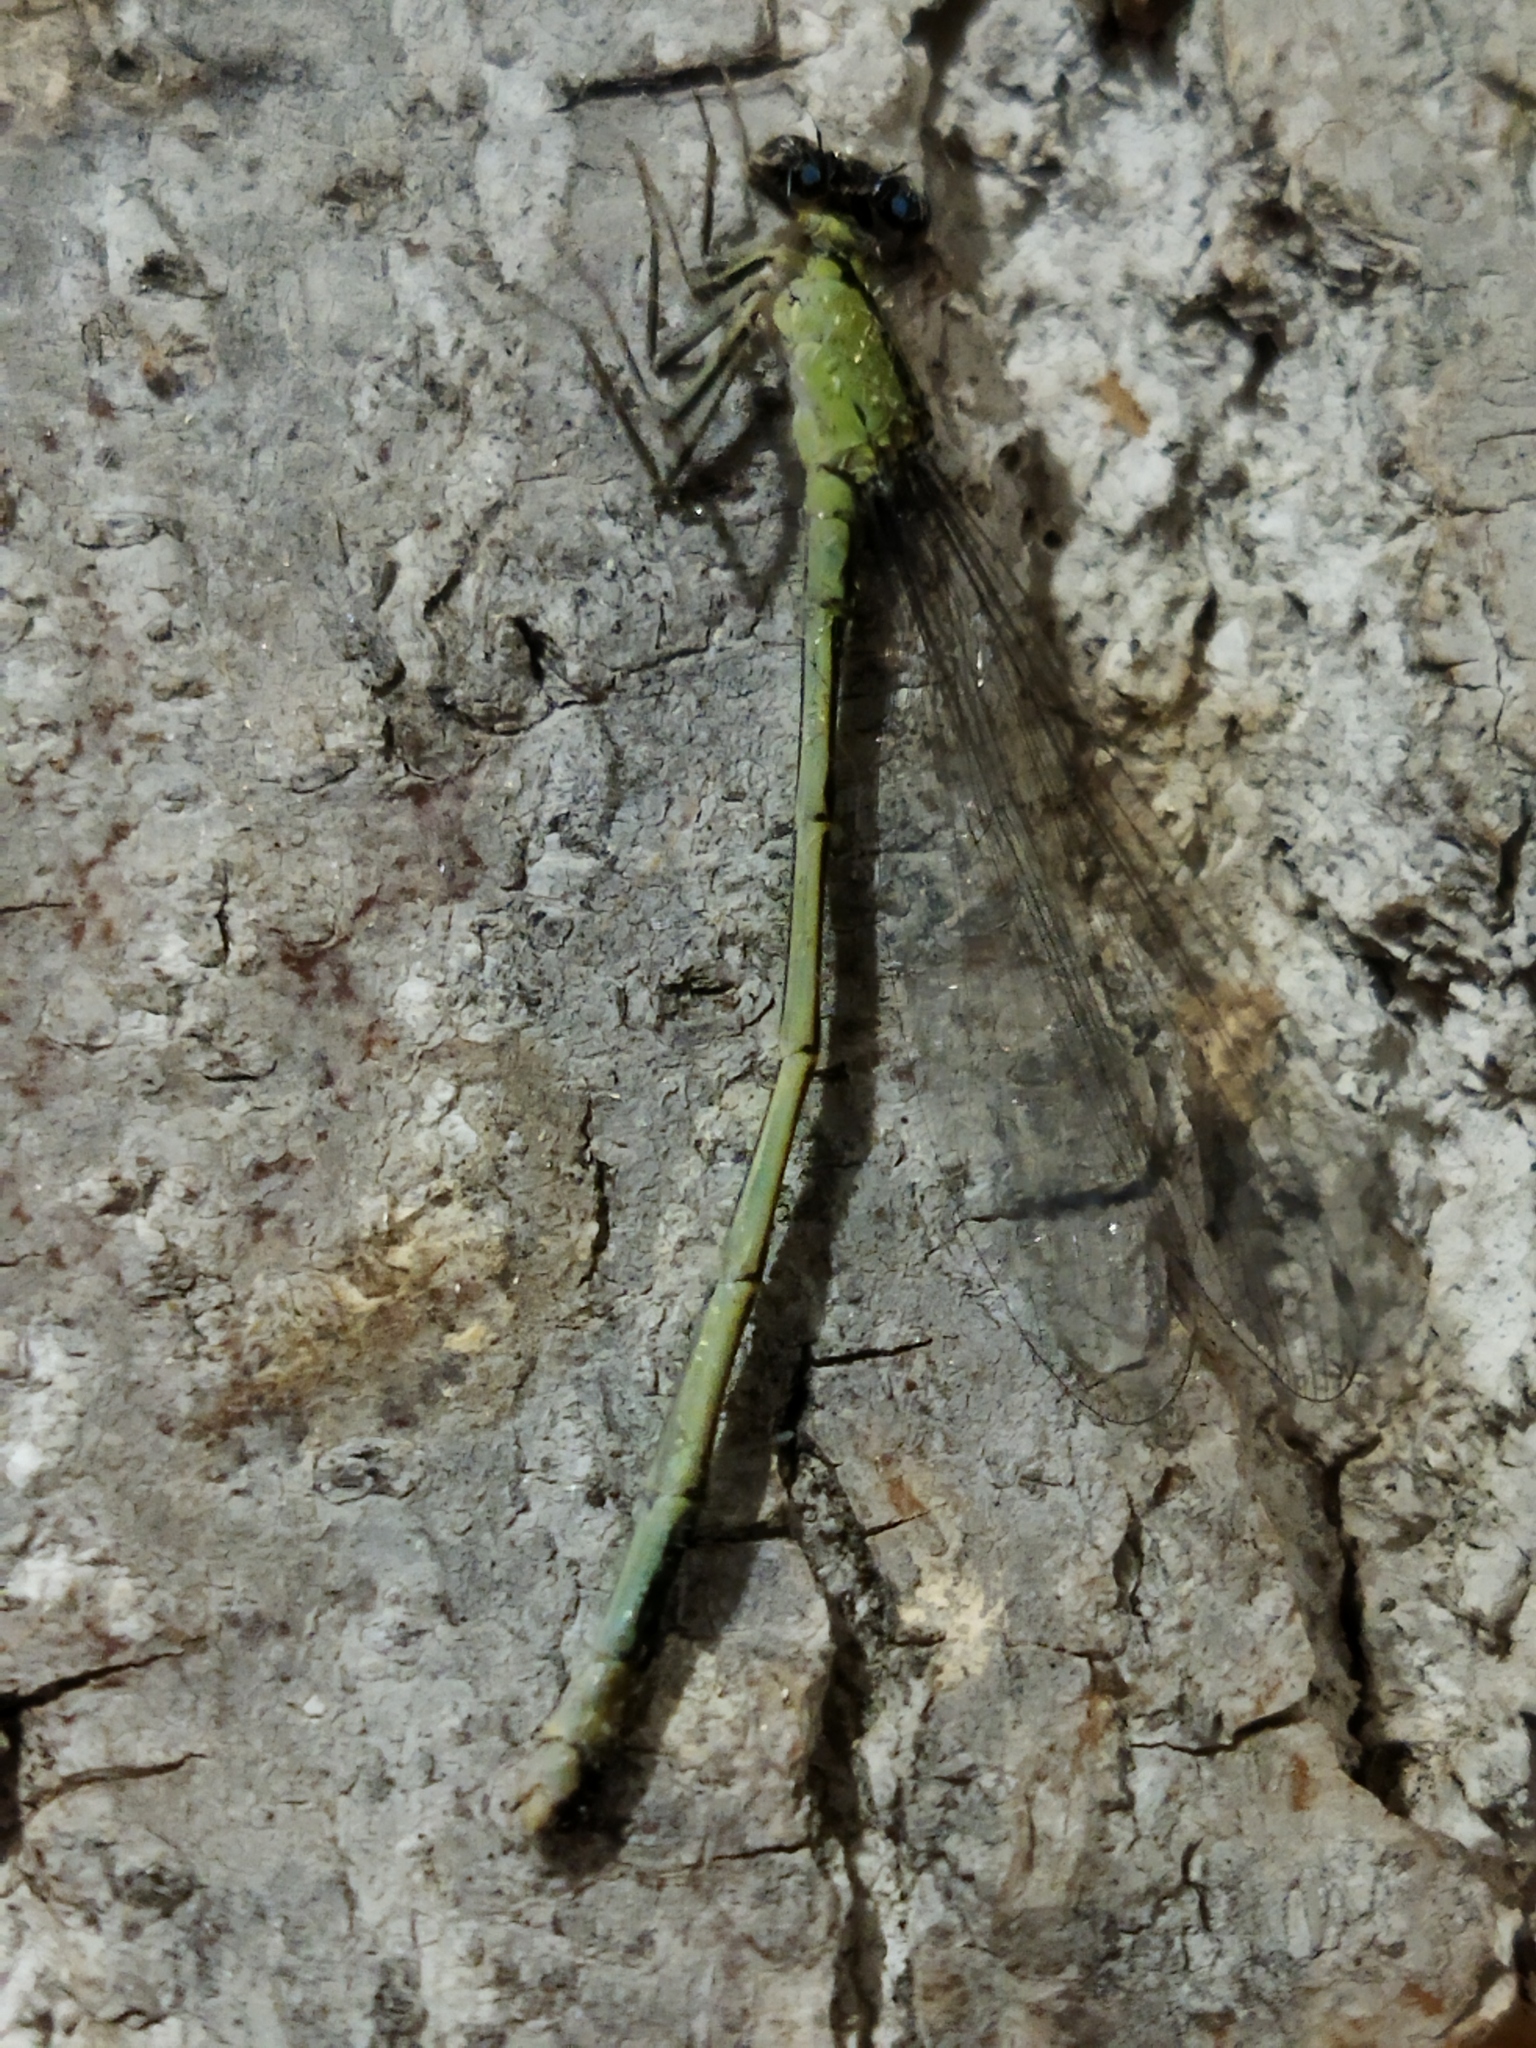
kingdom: Animalia
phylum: Arthropoda
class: Insecta
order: Odonata
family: Coenagrionidae
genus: Ischnura
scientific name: Ischnura elegans
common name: Blue-tailed damselfly
